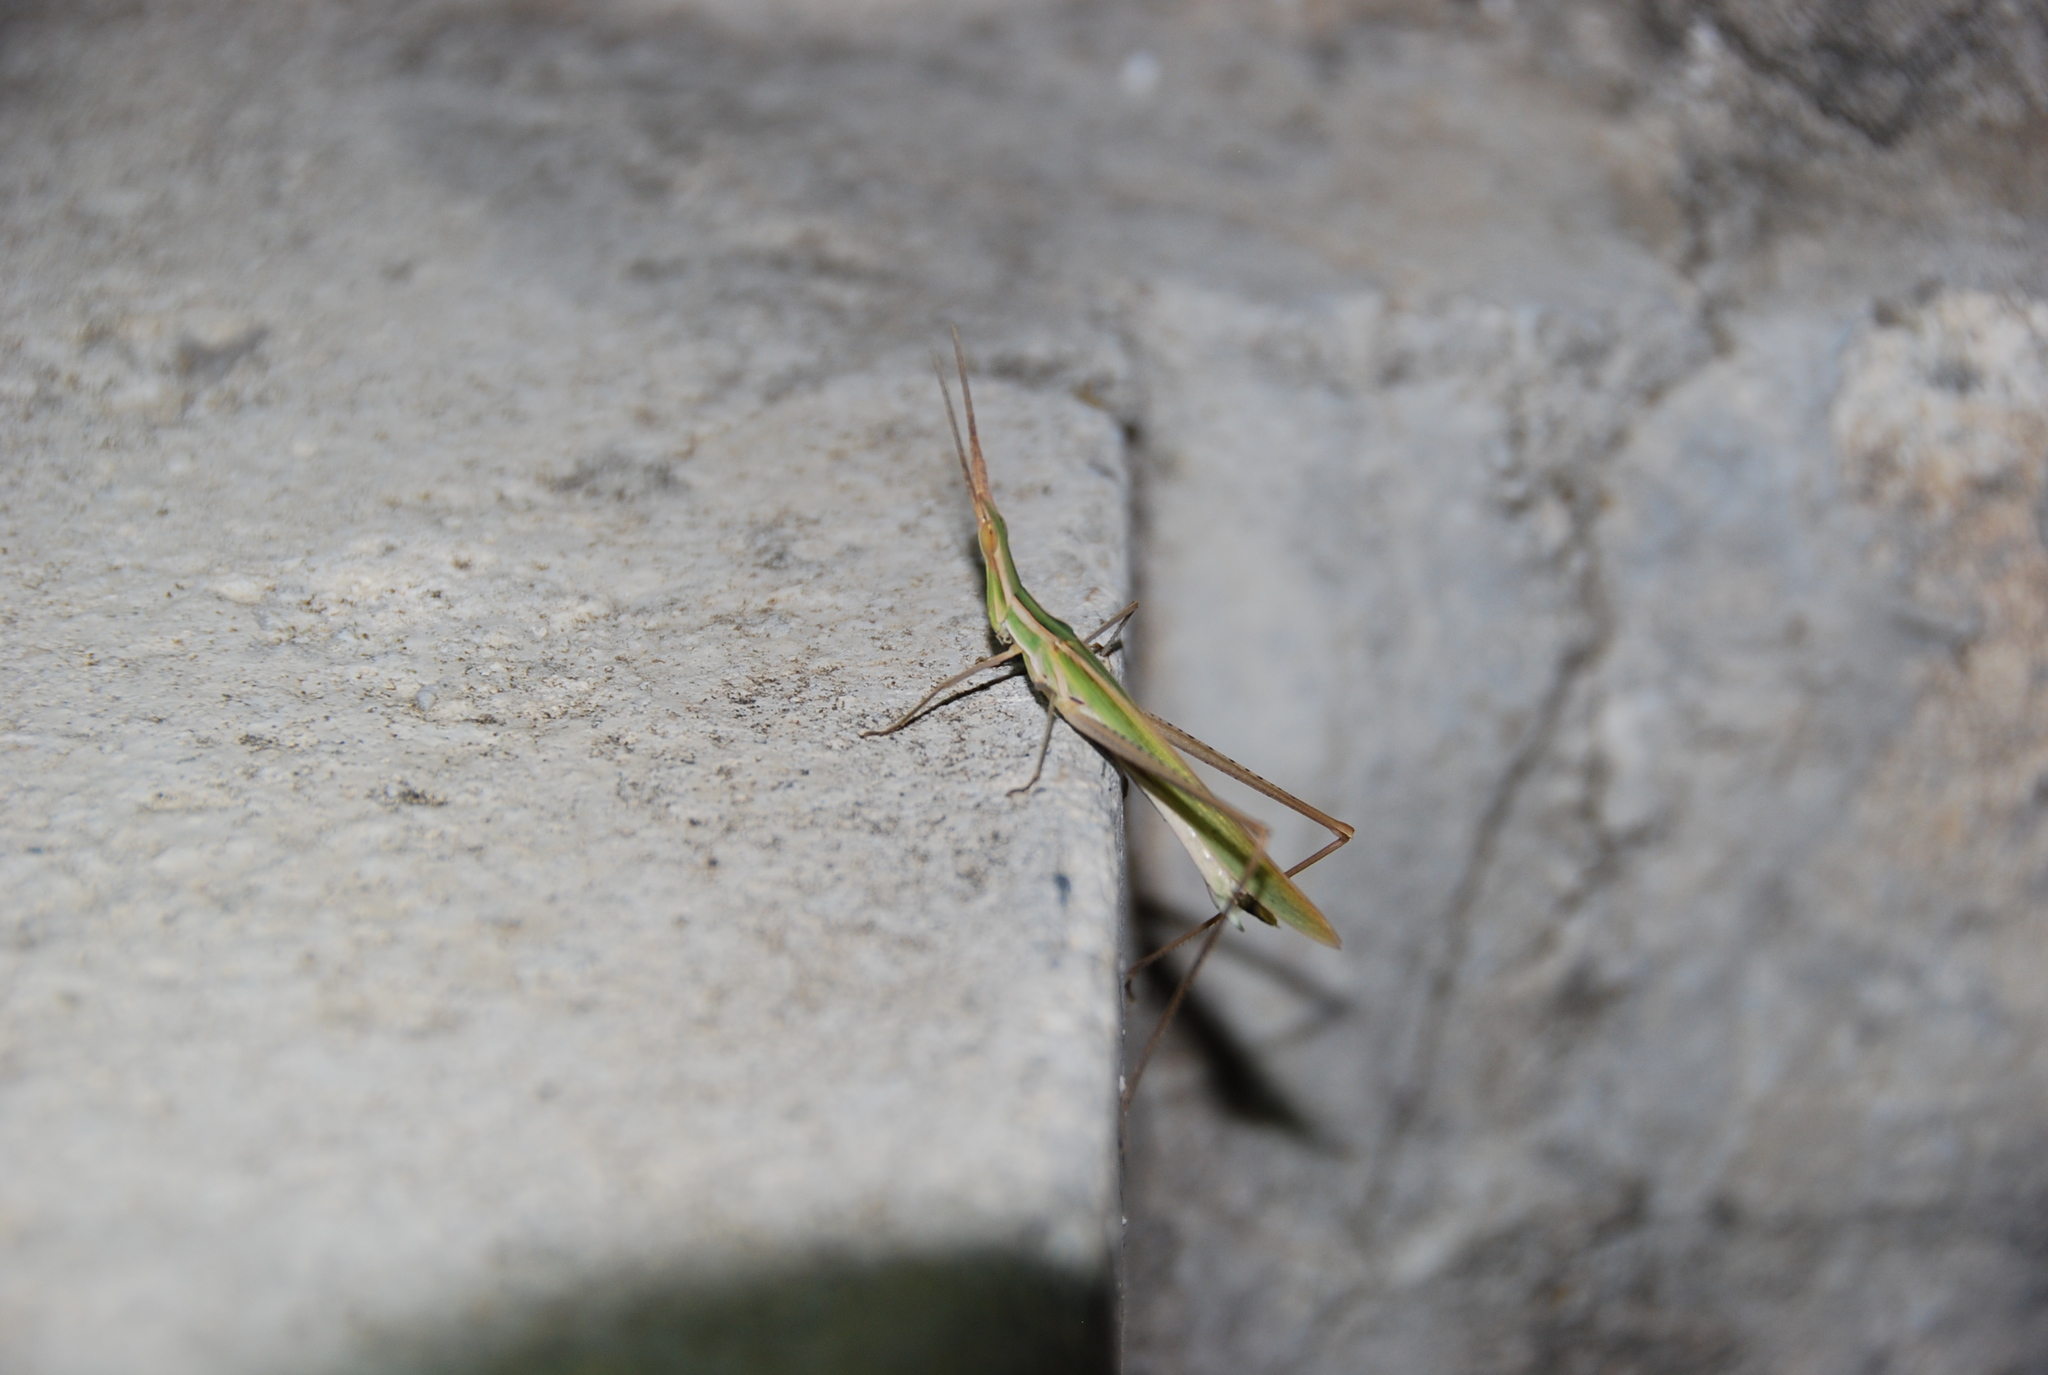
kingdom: Animalia
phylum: Arthropoda
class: Insecta
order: Orthoptera
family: Acrididae
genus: Acrida
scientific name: Acrida ungarica
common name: Common cone-headed grasshopper
